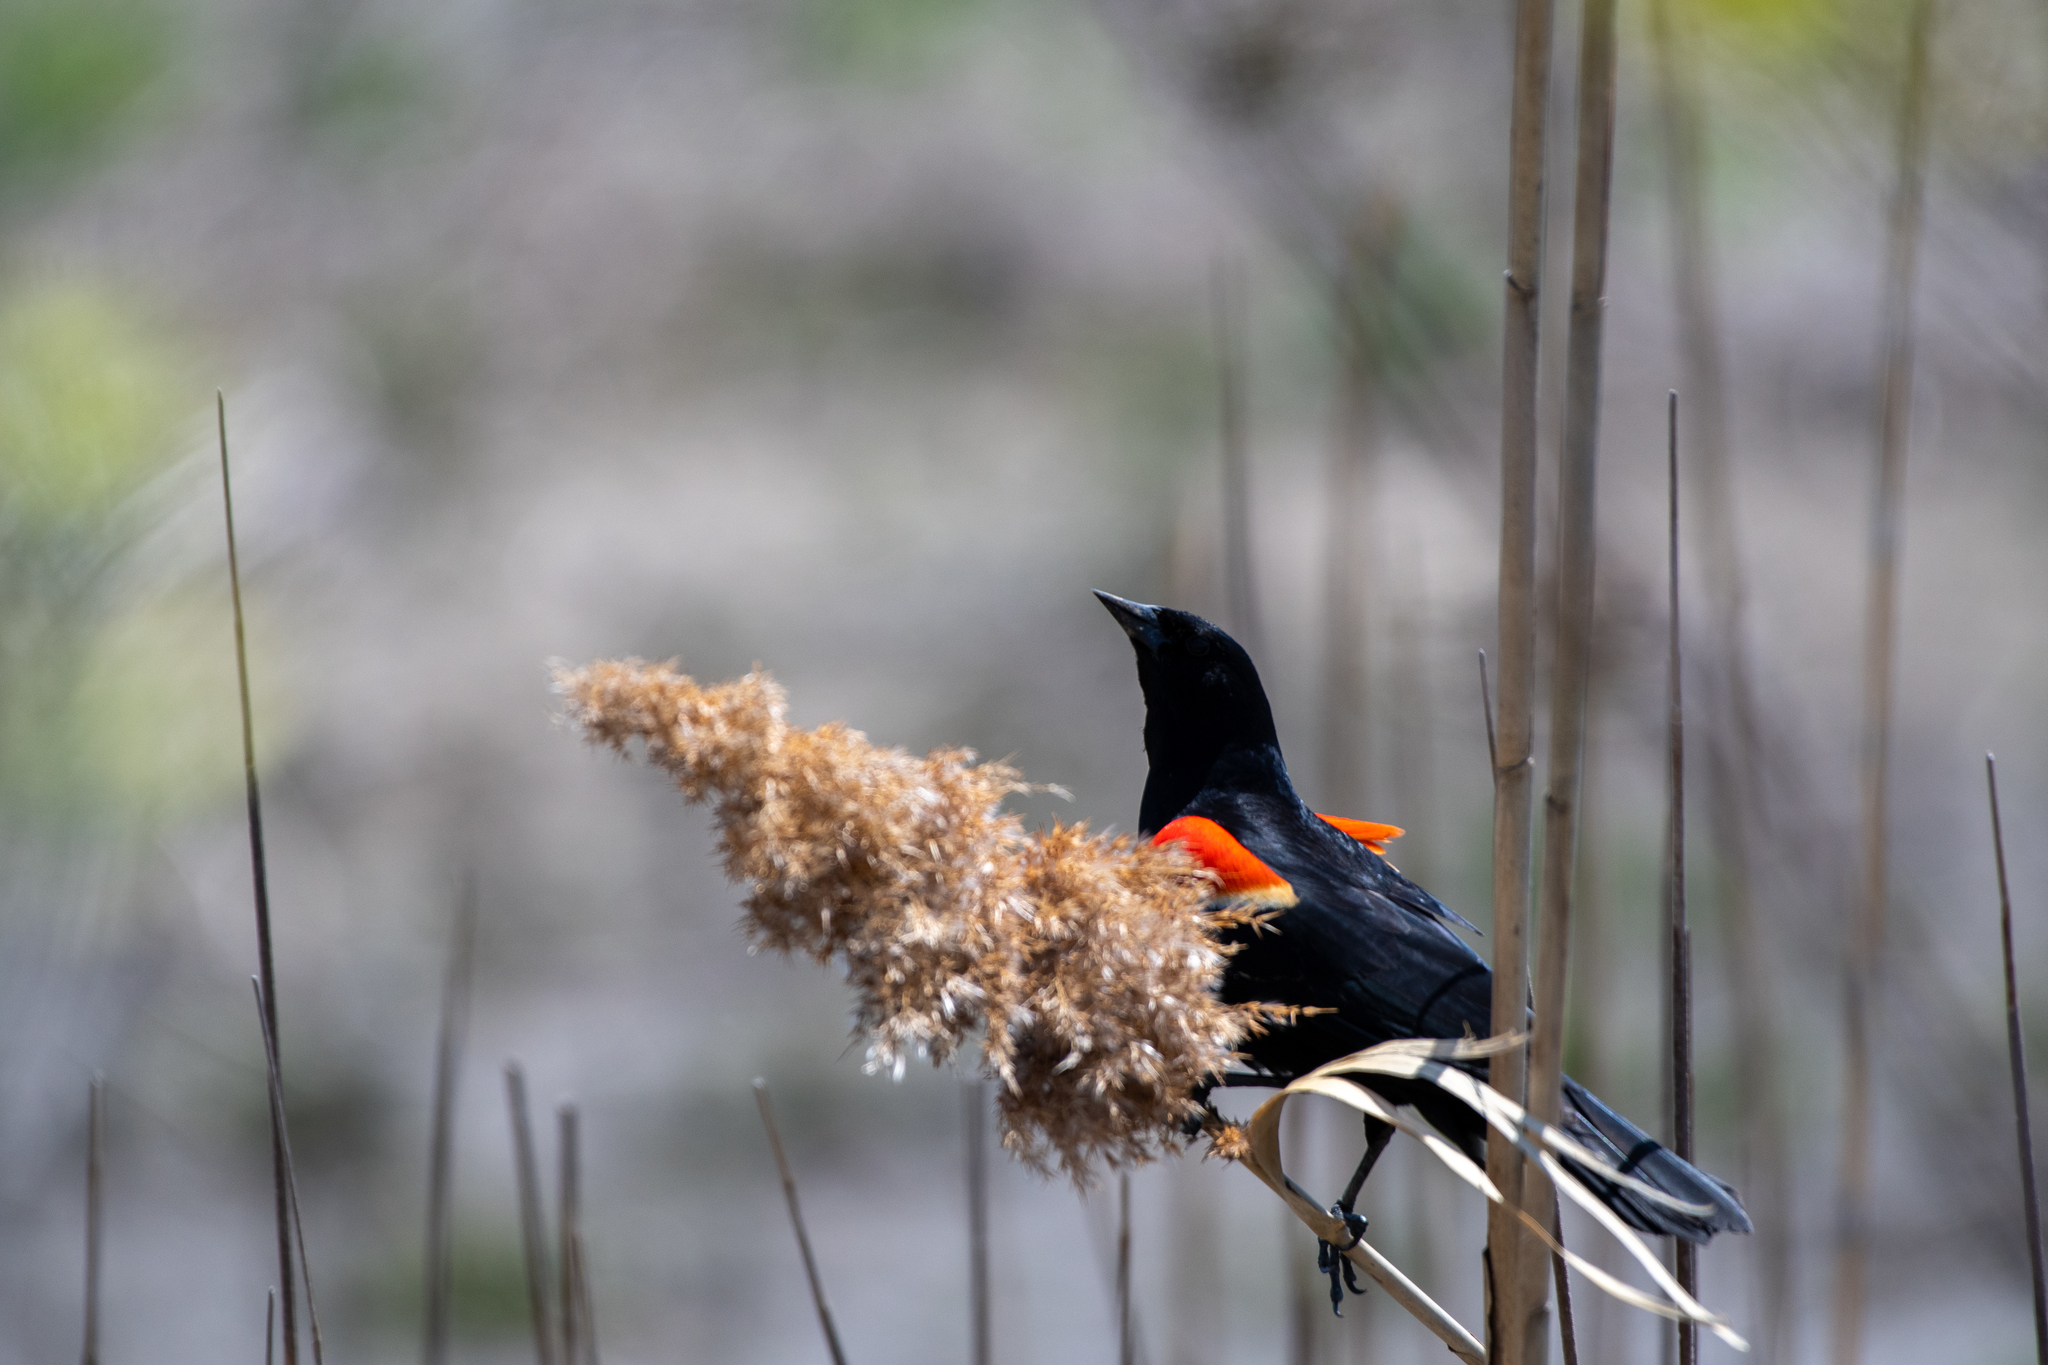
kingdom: Animalia
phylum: Chordata
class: Aves
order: Passeriformes
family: Icteridae
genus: Agelaius
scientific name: Agelaius phoeniceus
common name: Red-winged blackbird
